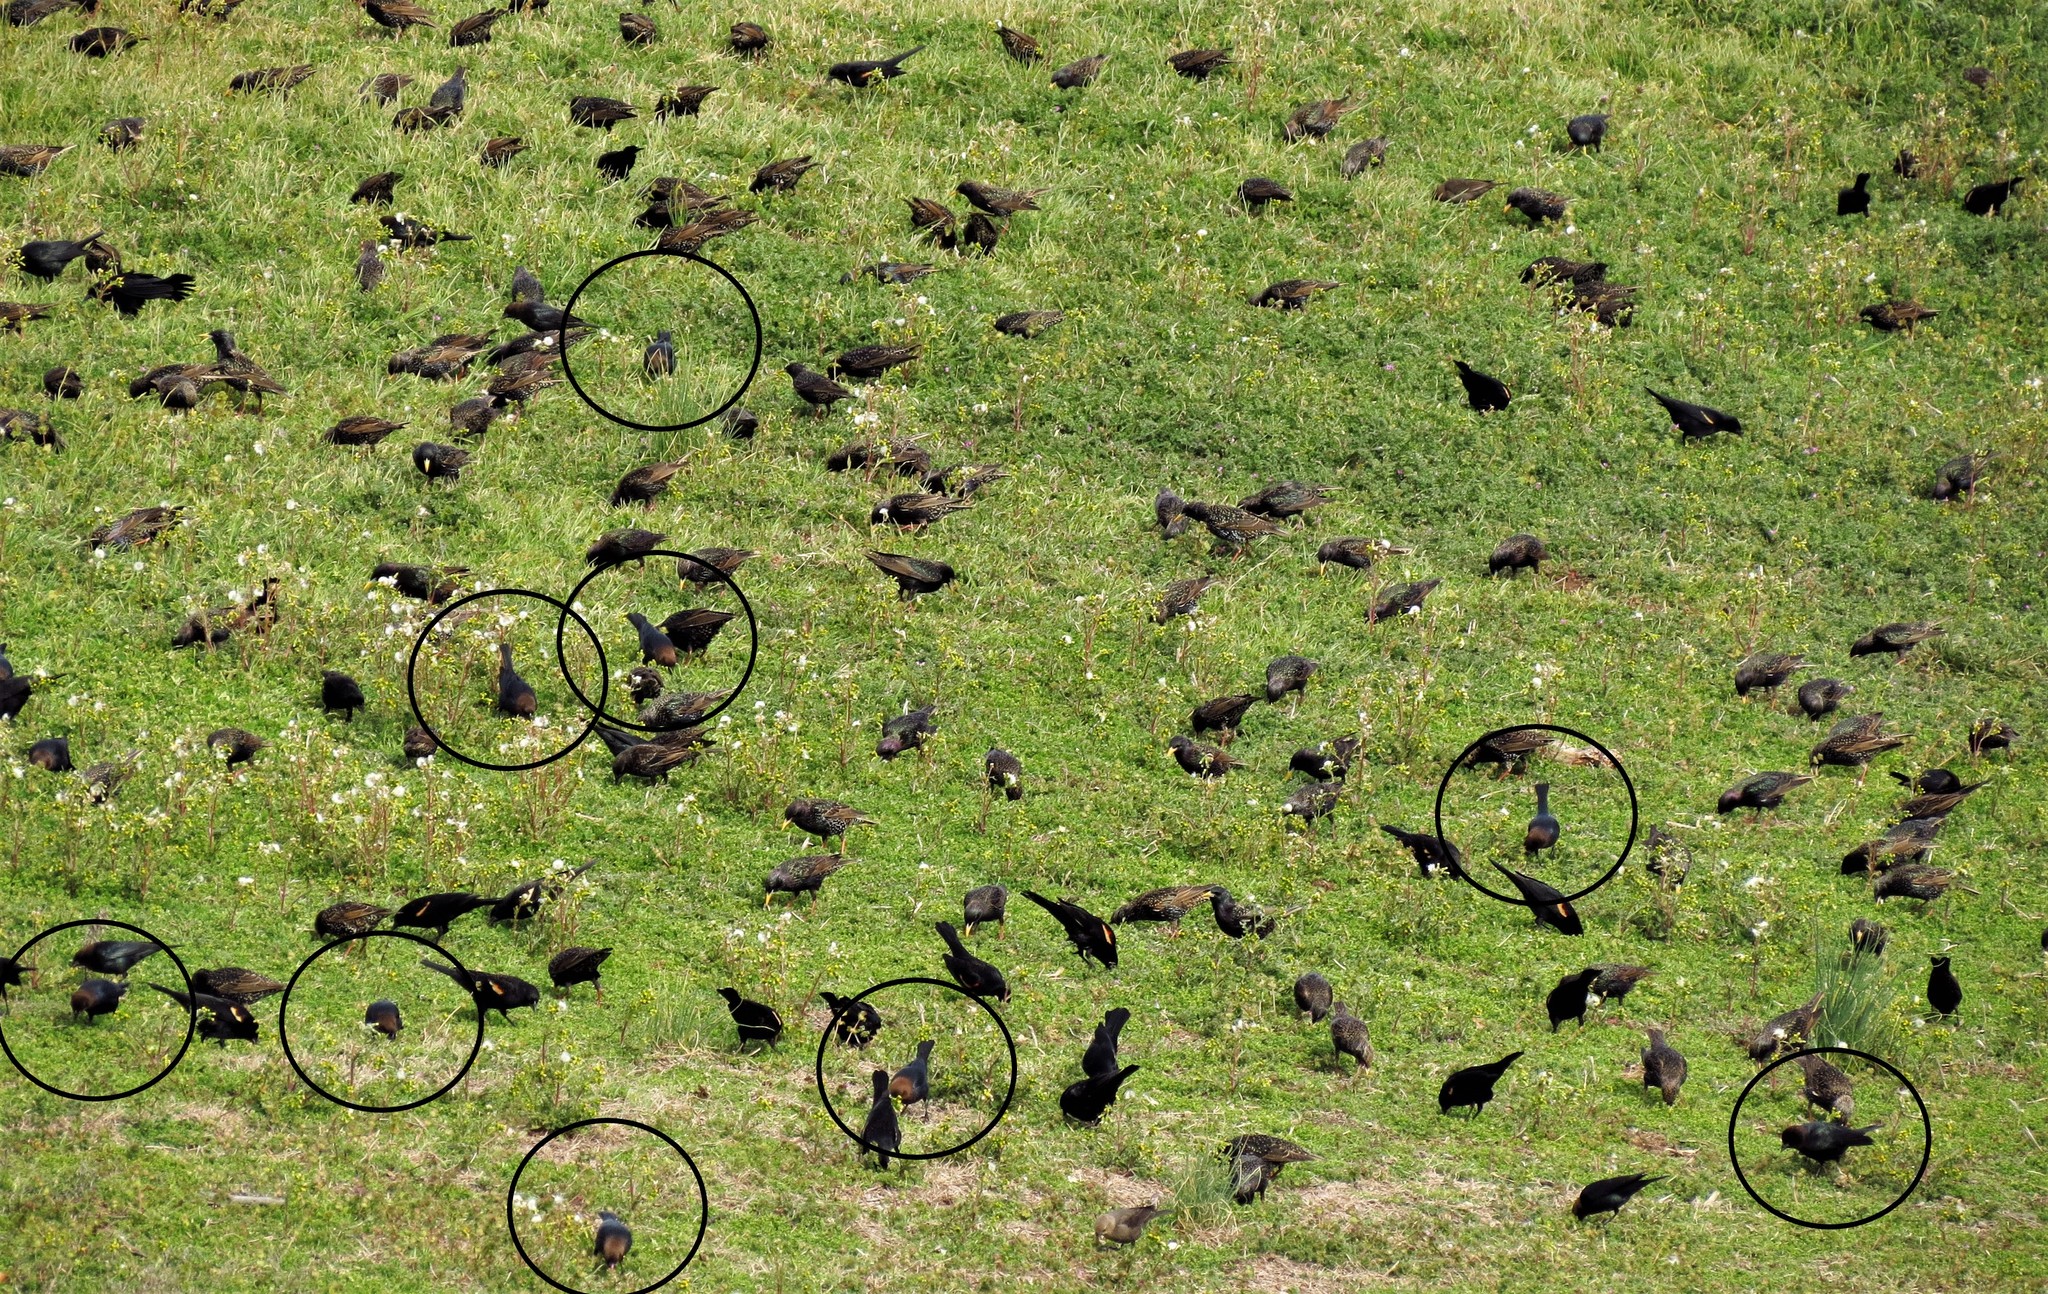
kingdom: Animalia
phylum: Chordata
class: Aves
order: Passeriformes
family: Icteridae
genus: Molothrus
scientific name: Molothrus ater
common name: Brown-headed cowbird
